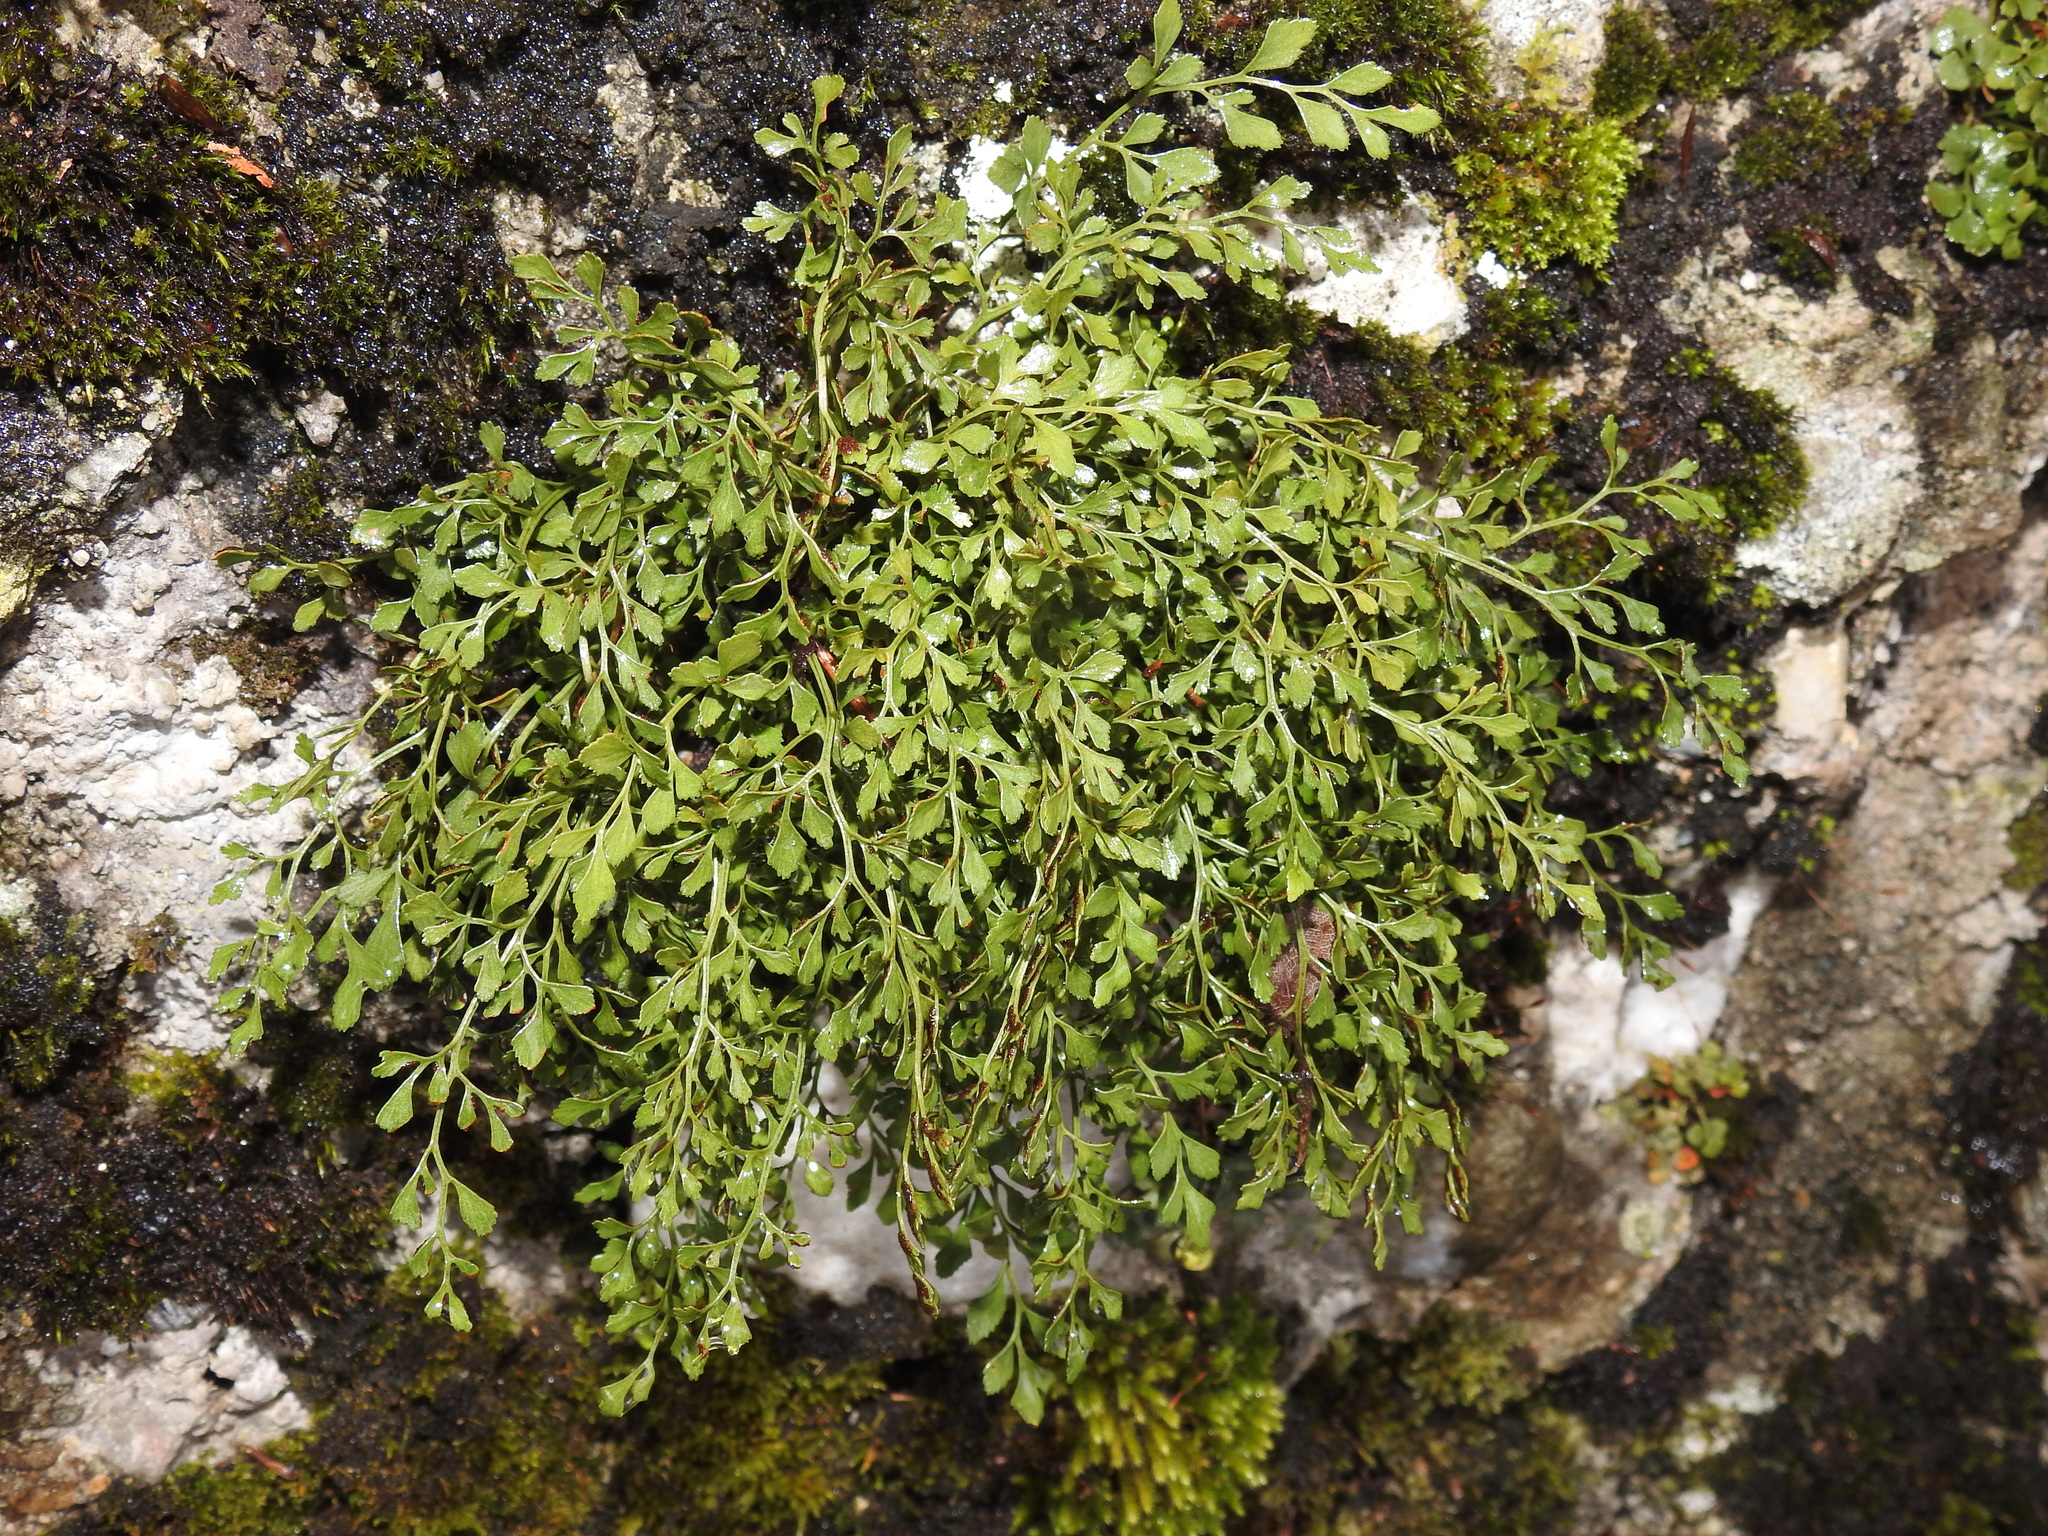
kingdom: Plantae
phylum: Tracheophyta
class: Polypodiopsida
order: Polypodiales
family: Aspleniaceae
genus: Asplenium
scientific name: Asplenium ruta-muraria
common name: Wall-rue
